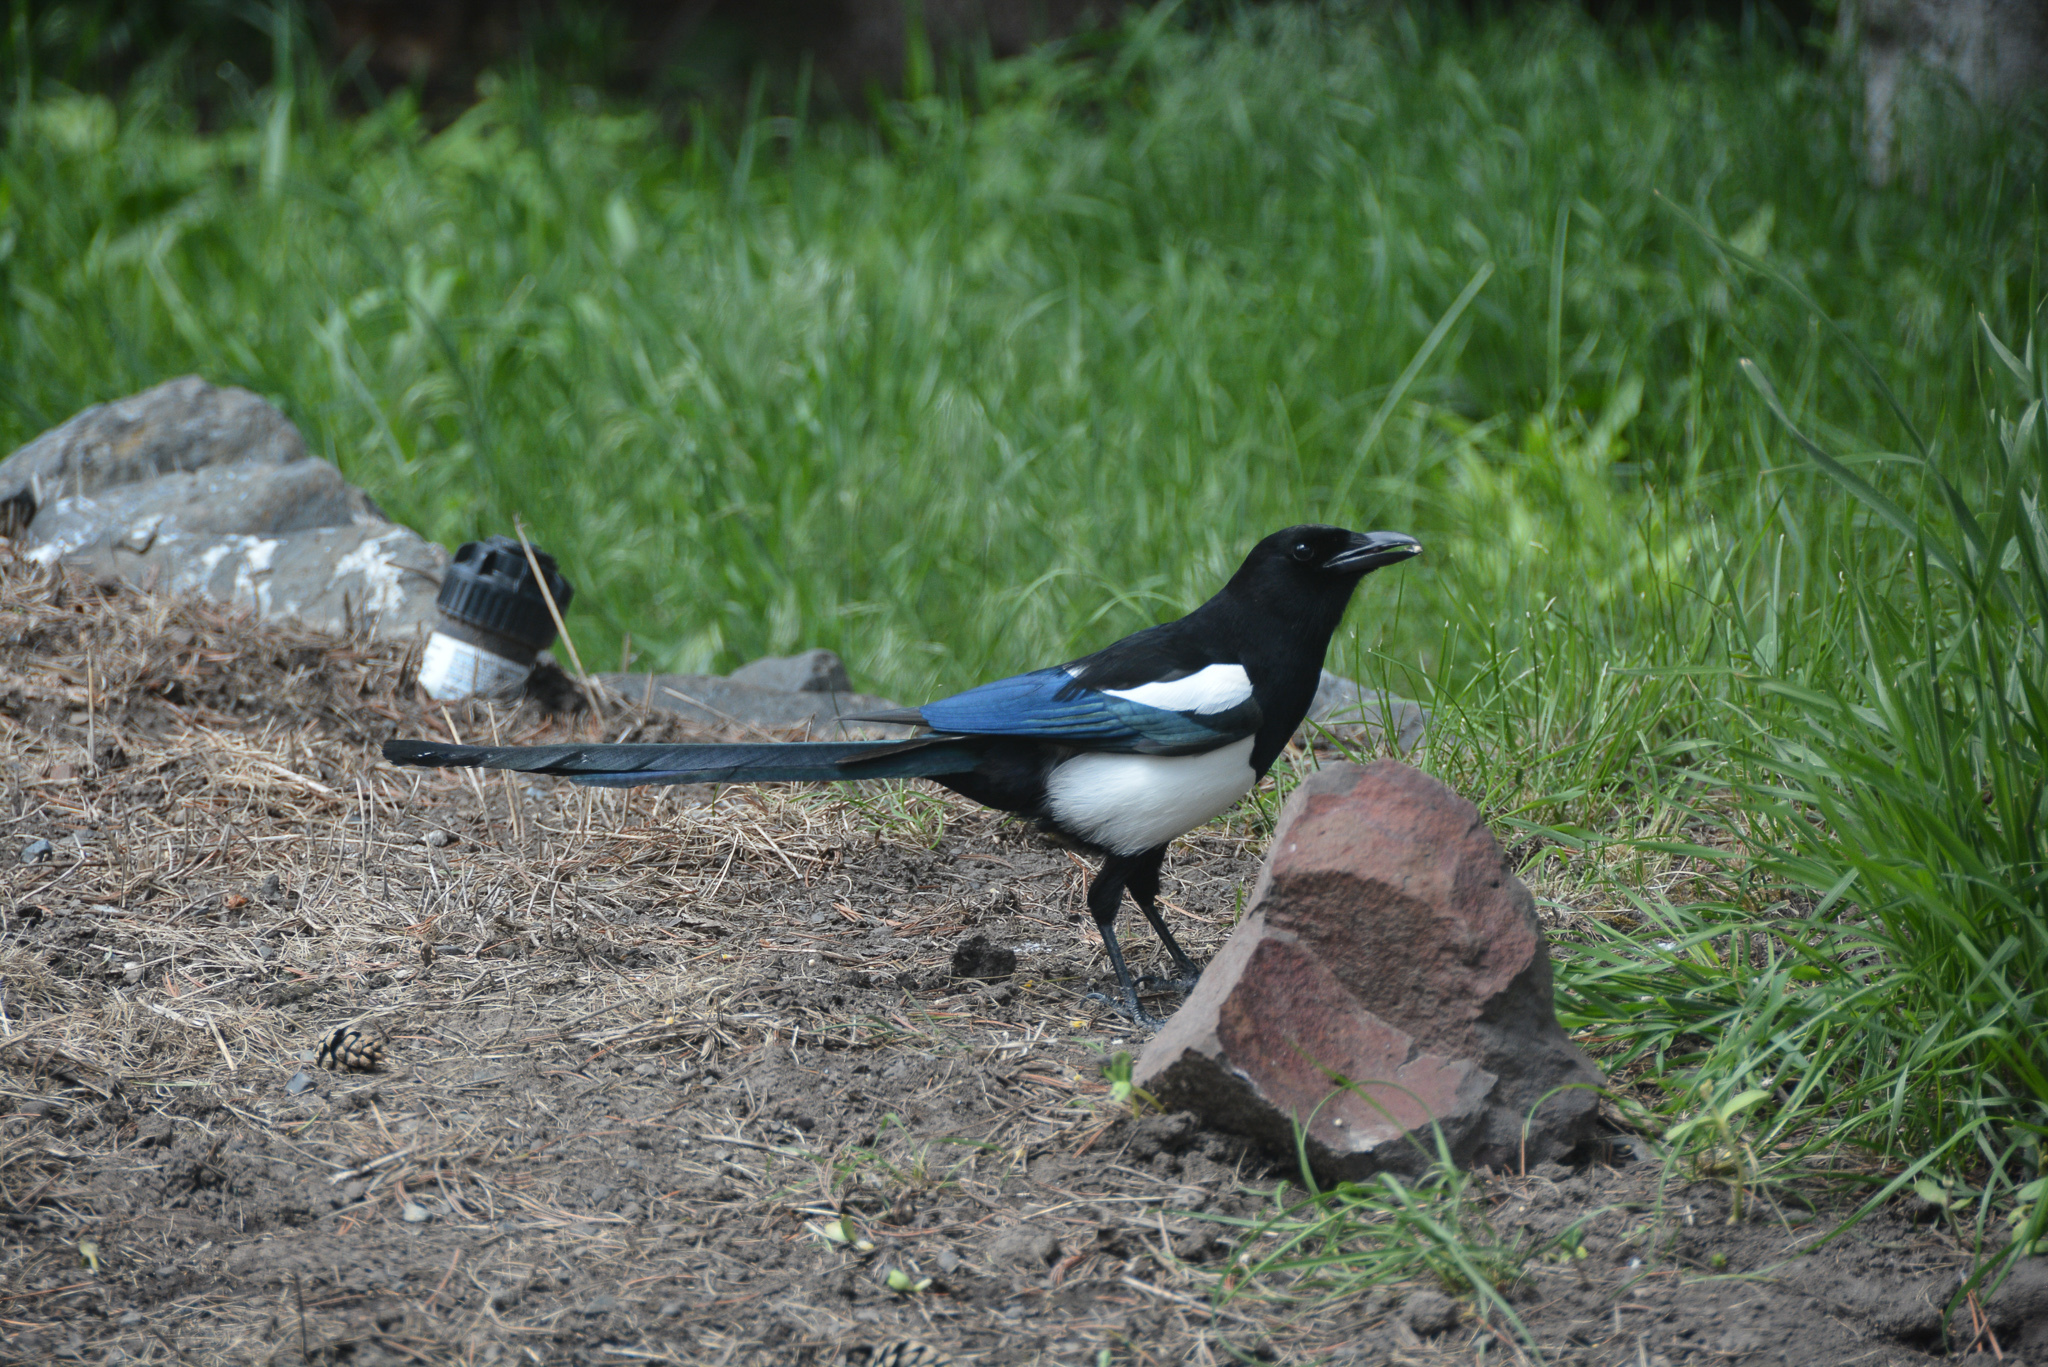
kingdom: Animalia
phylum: Chordata
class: Aves
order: Passeriformes
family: Corvidae
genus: Pica
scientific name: Pica hudsonia
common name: Black-billed magpie
